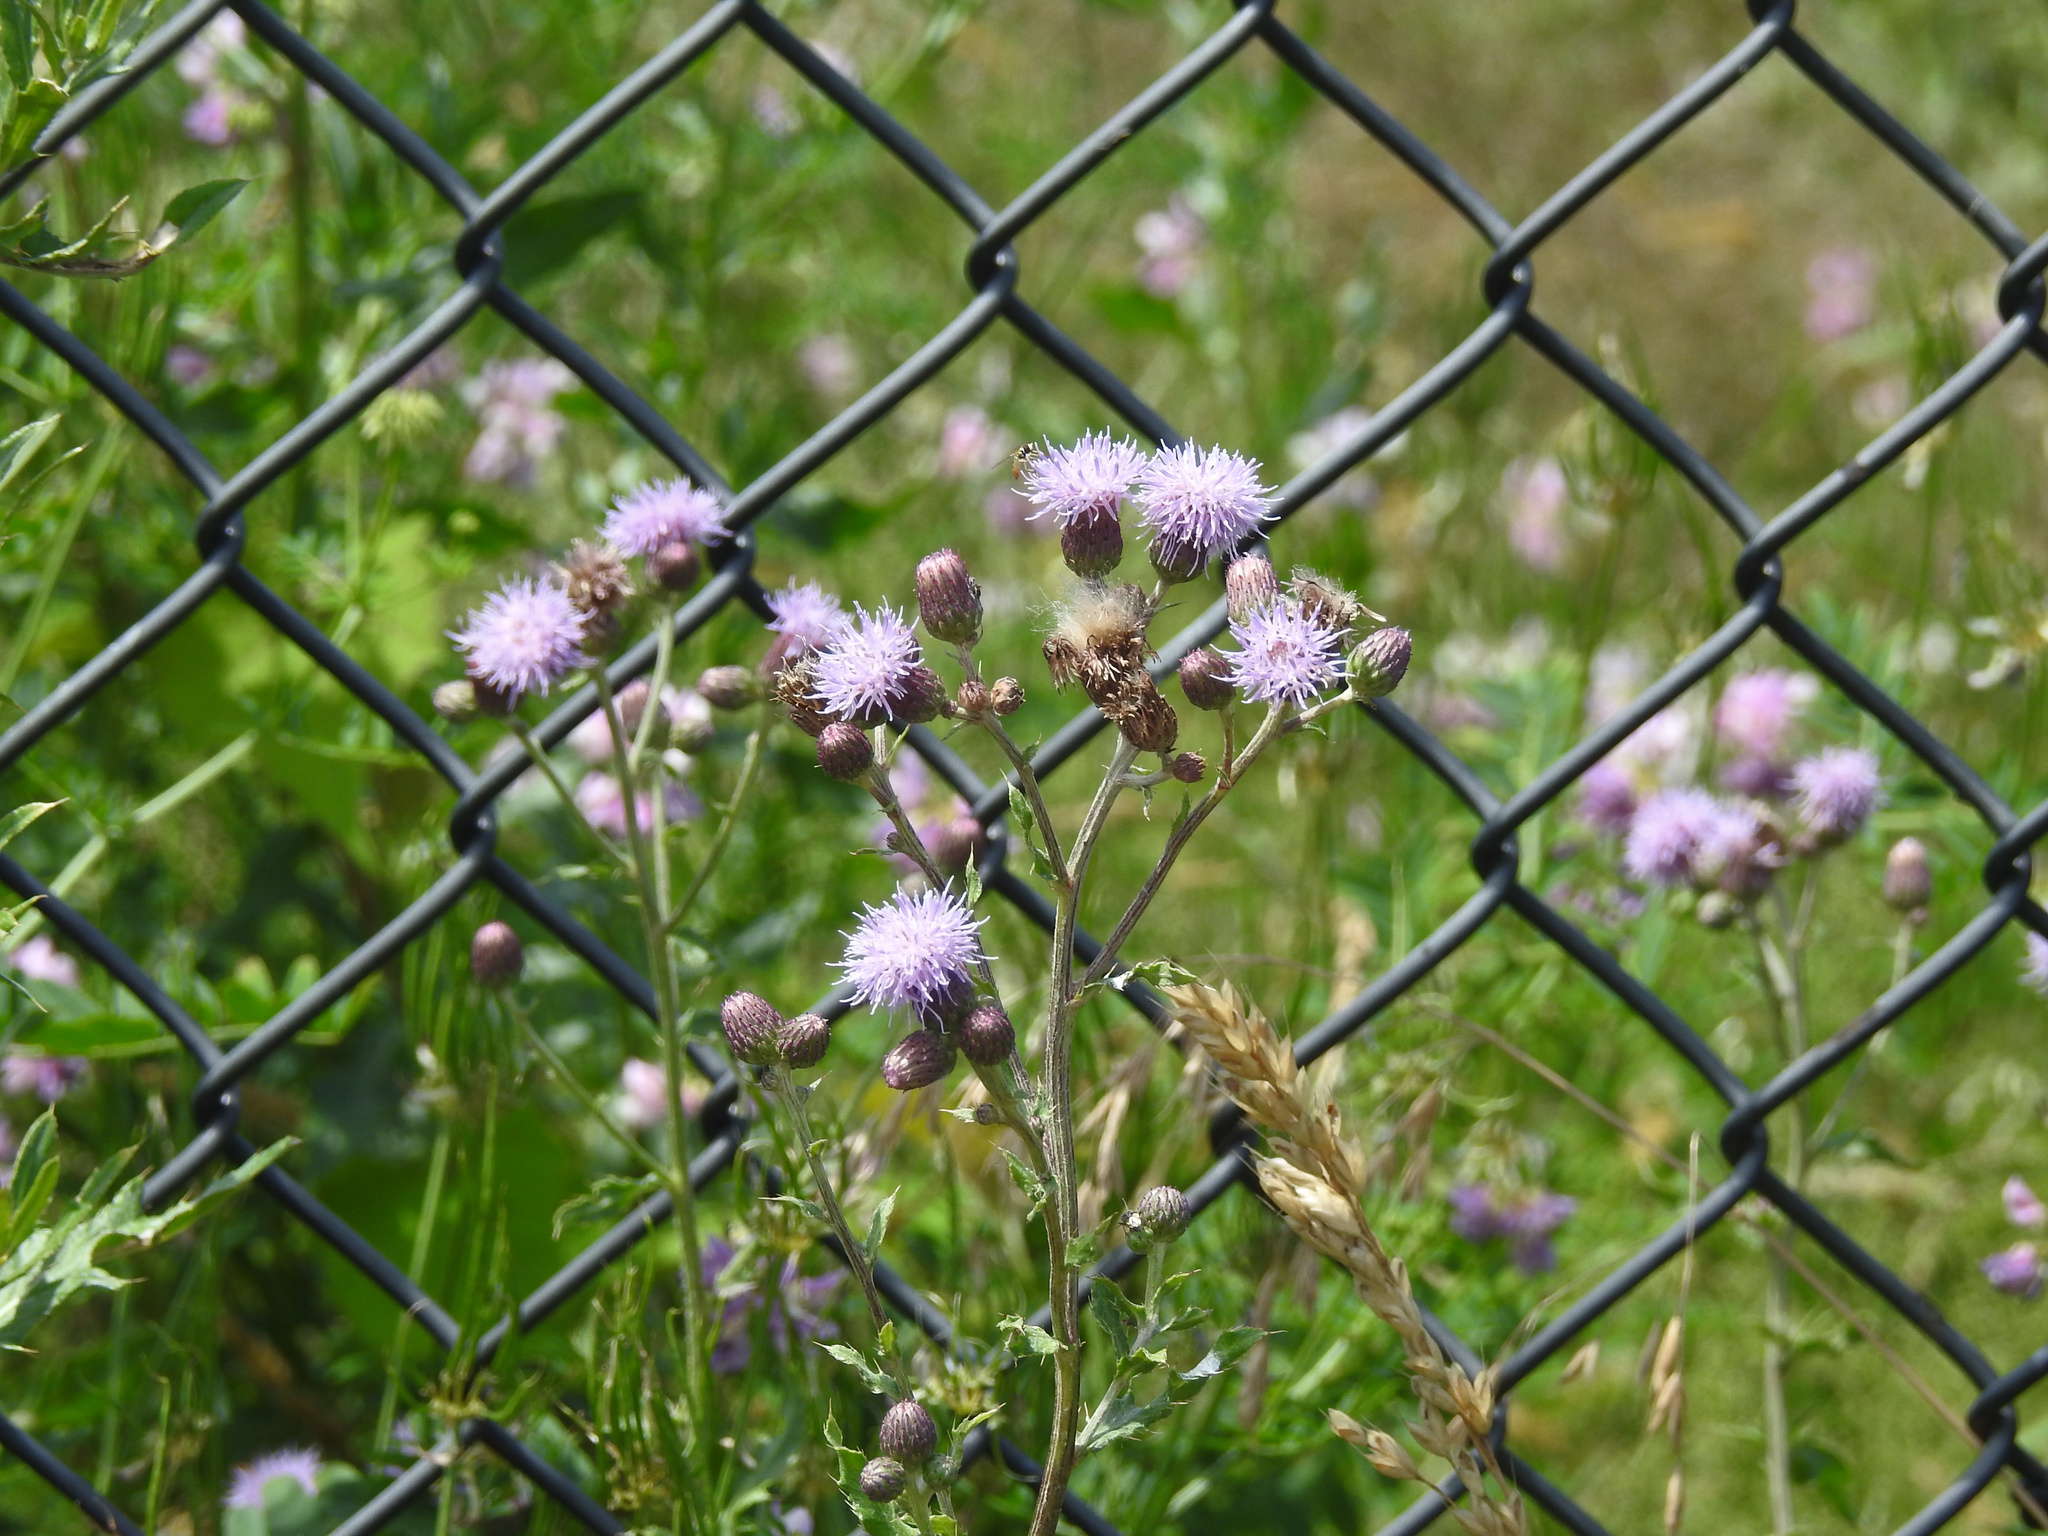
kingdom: Plantae
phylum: Tracheophyta
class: Magnoliopsida
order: Asterales
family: Asteraceae
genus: Cirsium
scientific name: Cirsium arvense
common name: Creeping thistle
